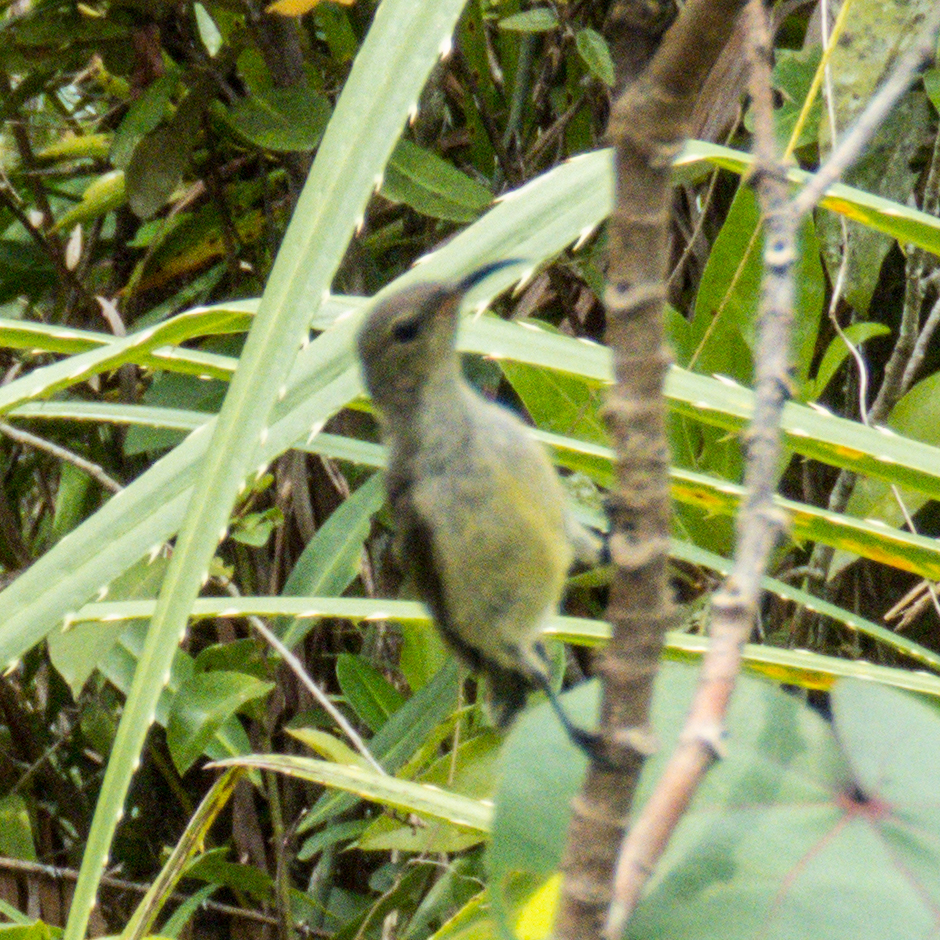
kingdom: Animalia
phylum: Chordata
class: Aves
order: Passeriformes
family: Nectariniidae
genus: Leptocoma
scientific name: Leptocoma brasiliana
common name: Van hasselt's sunbird
